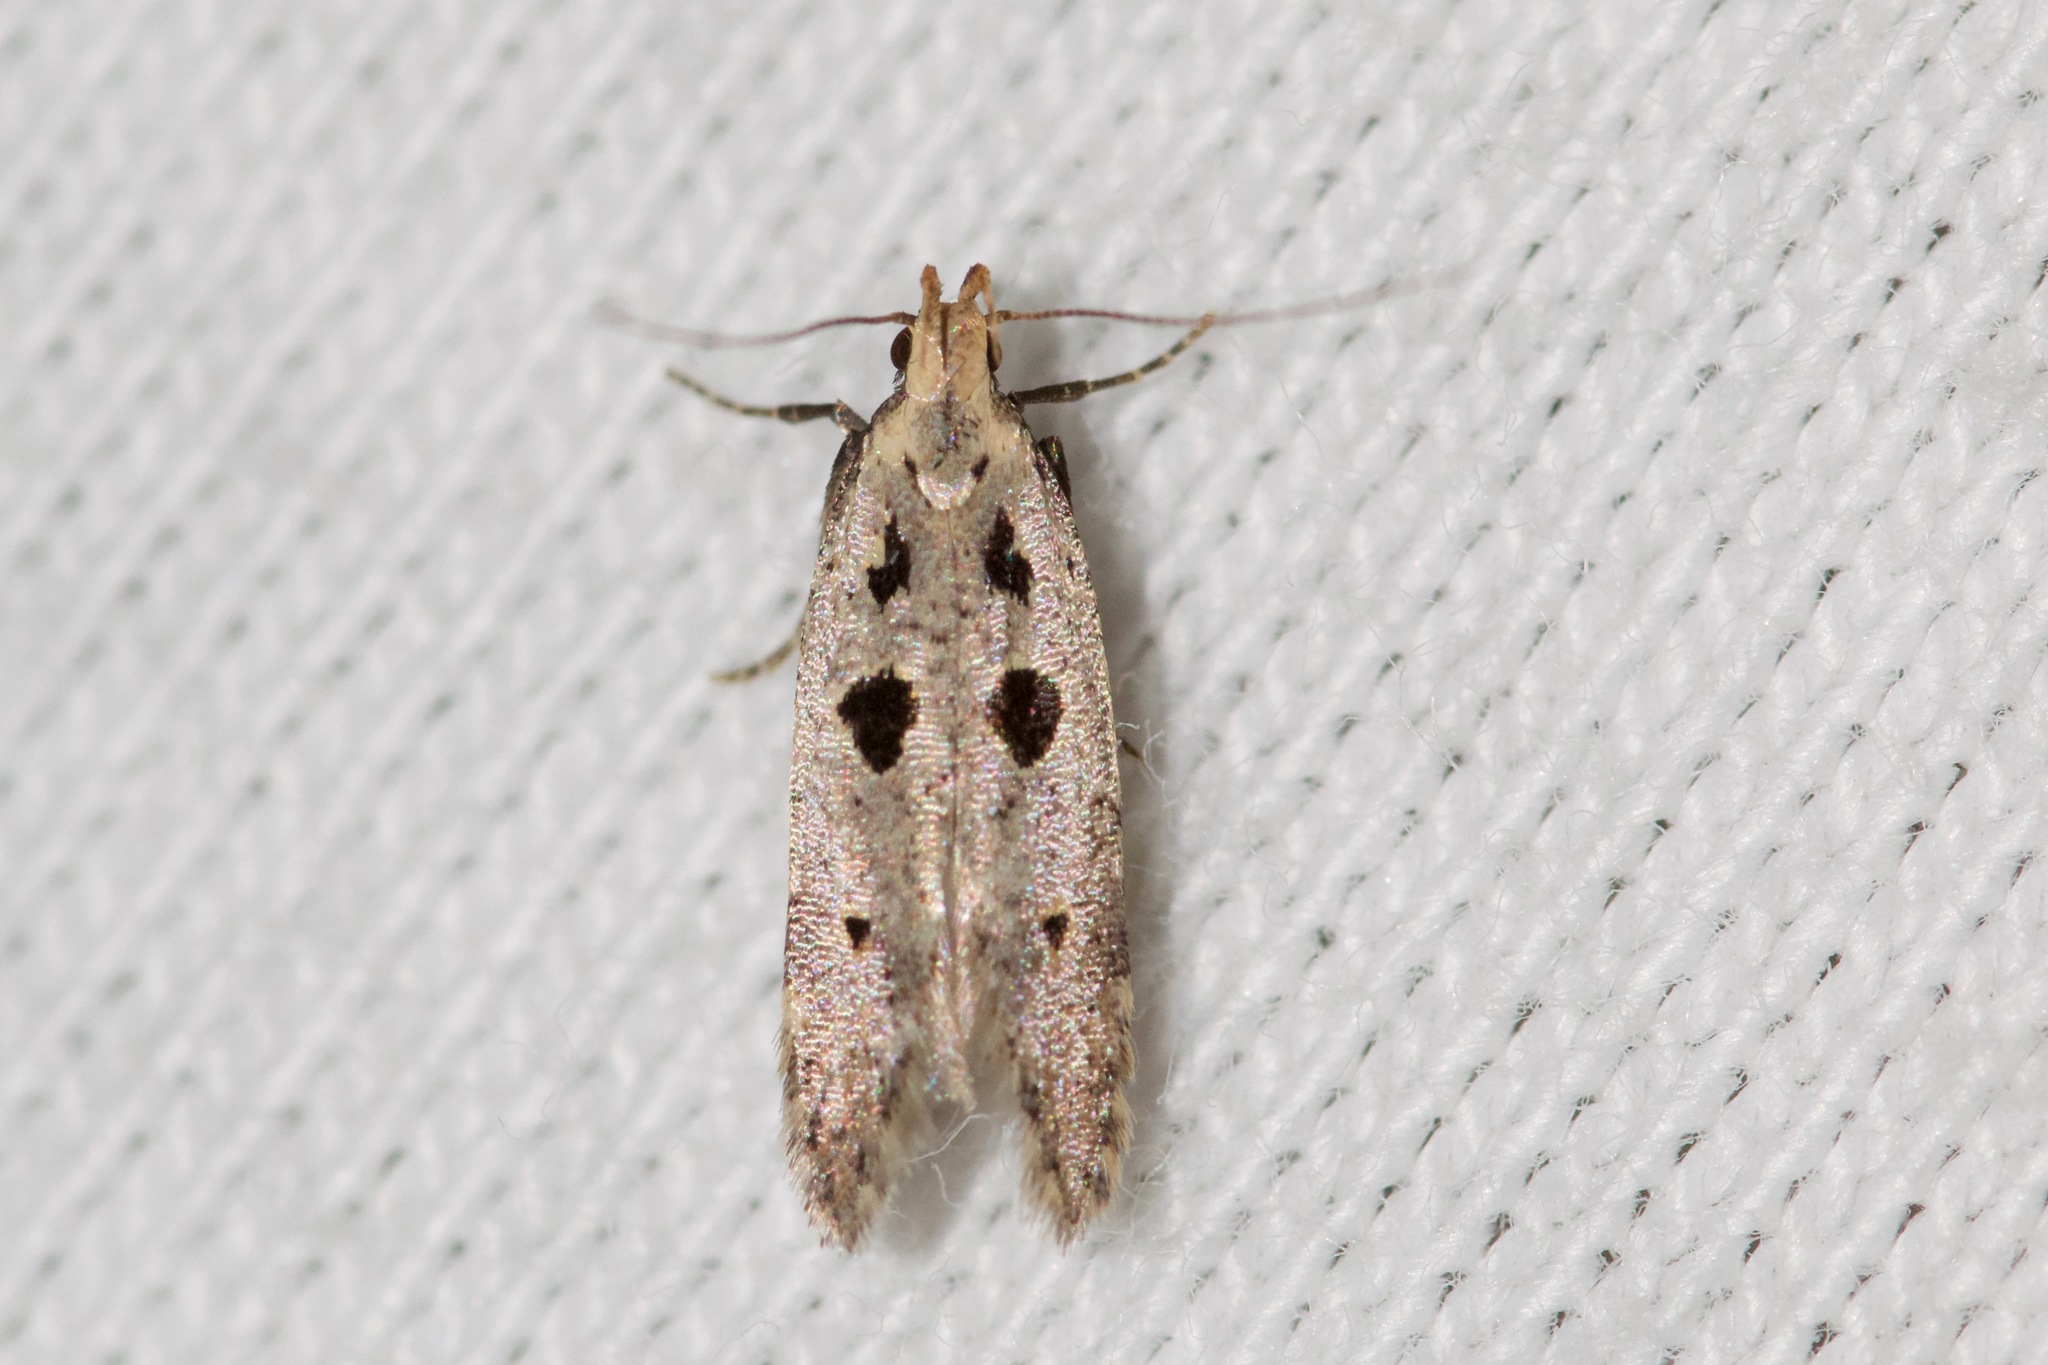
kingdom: Animalia
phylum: Arthropoda
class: Insecta
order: Lepidoptera
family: Gelechiidae
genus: Deltophora
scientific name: Deltophora sella
